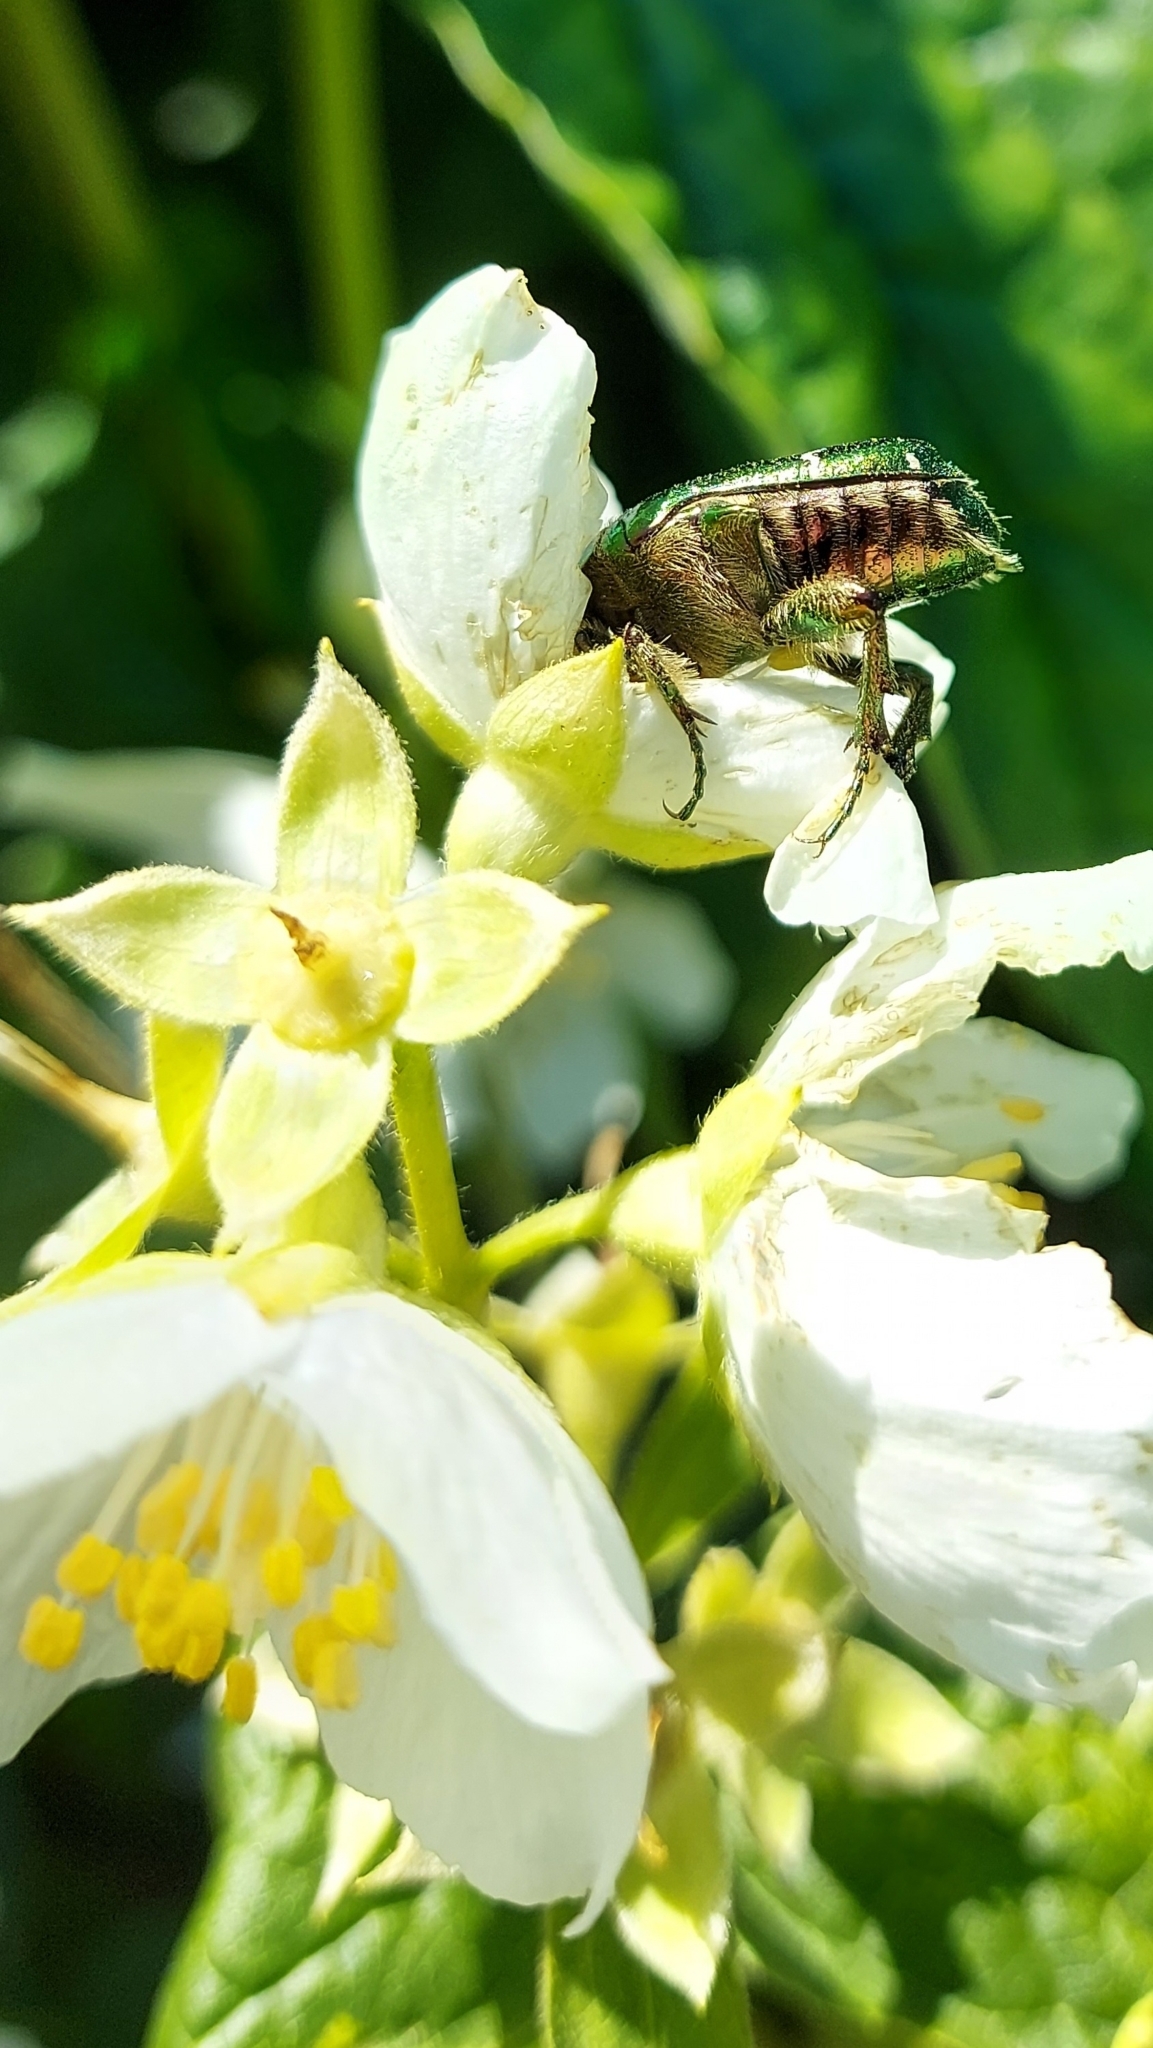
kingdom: Animalia
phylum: Arthropoda
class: Insecta
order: Coleoptera
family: Scarabaeidae
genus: Cetonia
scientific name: Cetonia aurata
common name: Rose chafer
